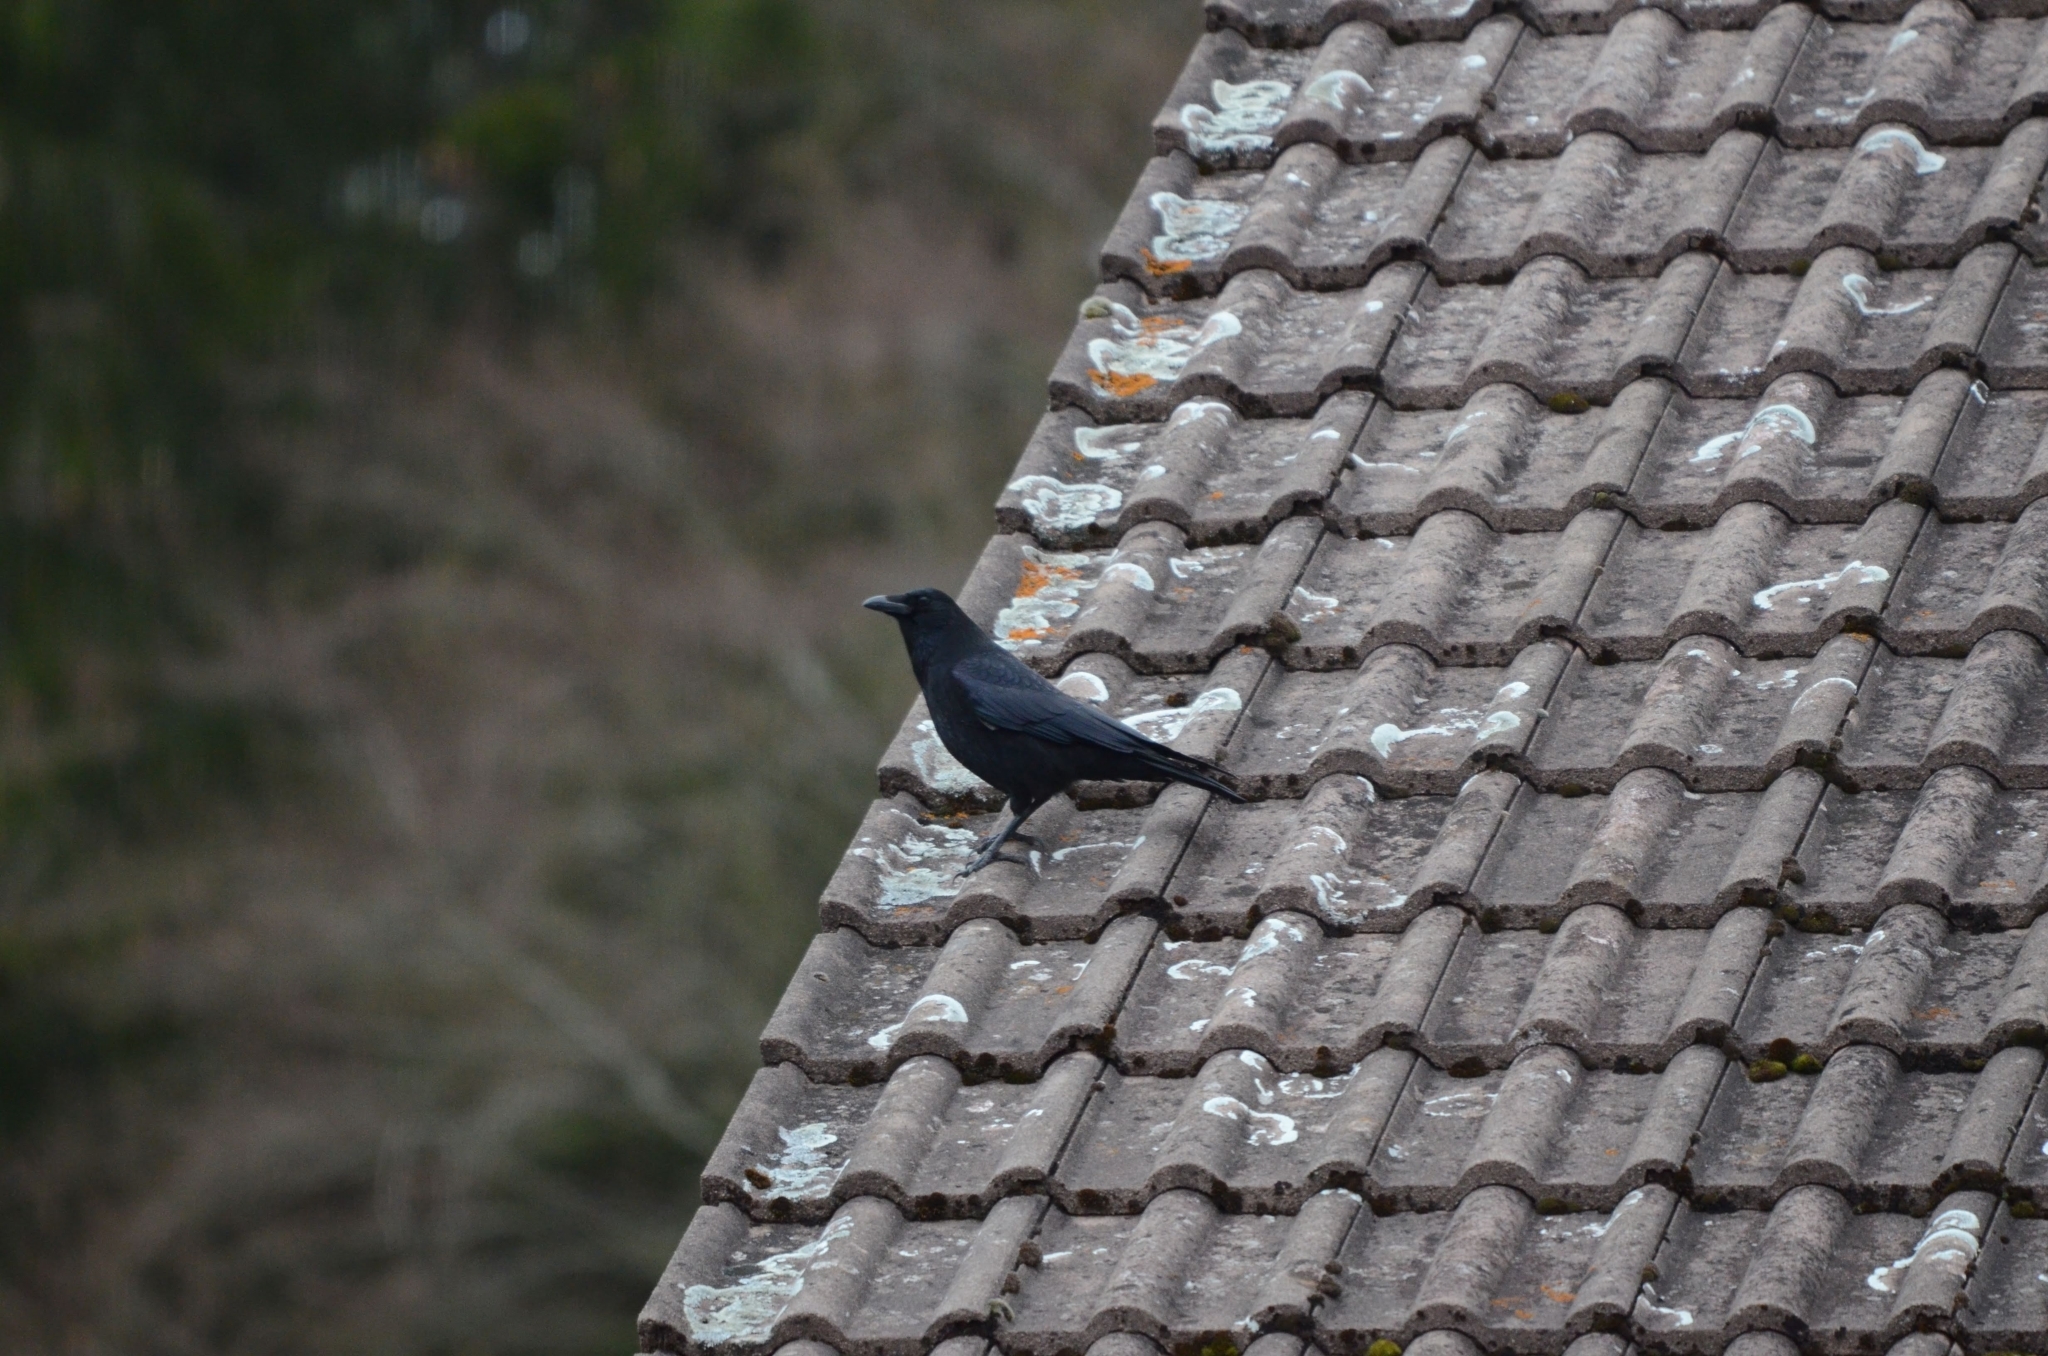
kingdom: Animalia
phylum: Chordata
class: Aves
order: Passeriformes
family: Corvidae
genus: Corvus
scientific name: Corvus corone
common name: Carrion crow
